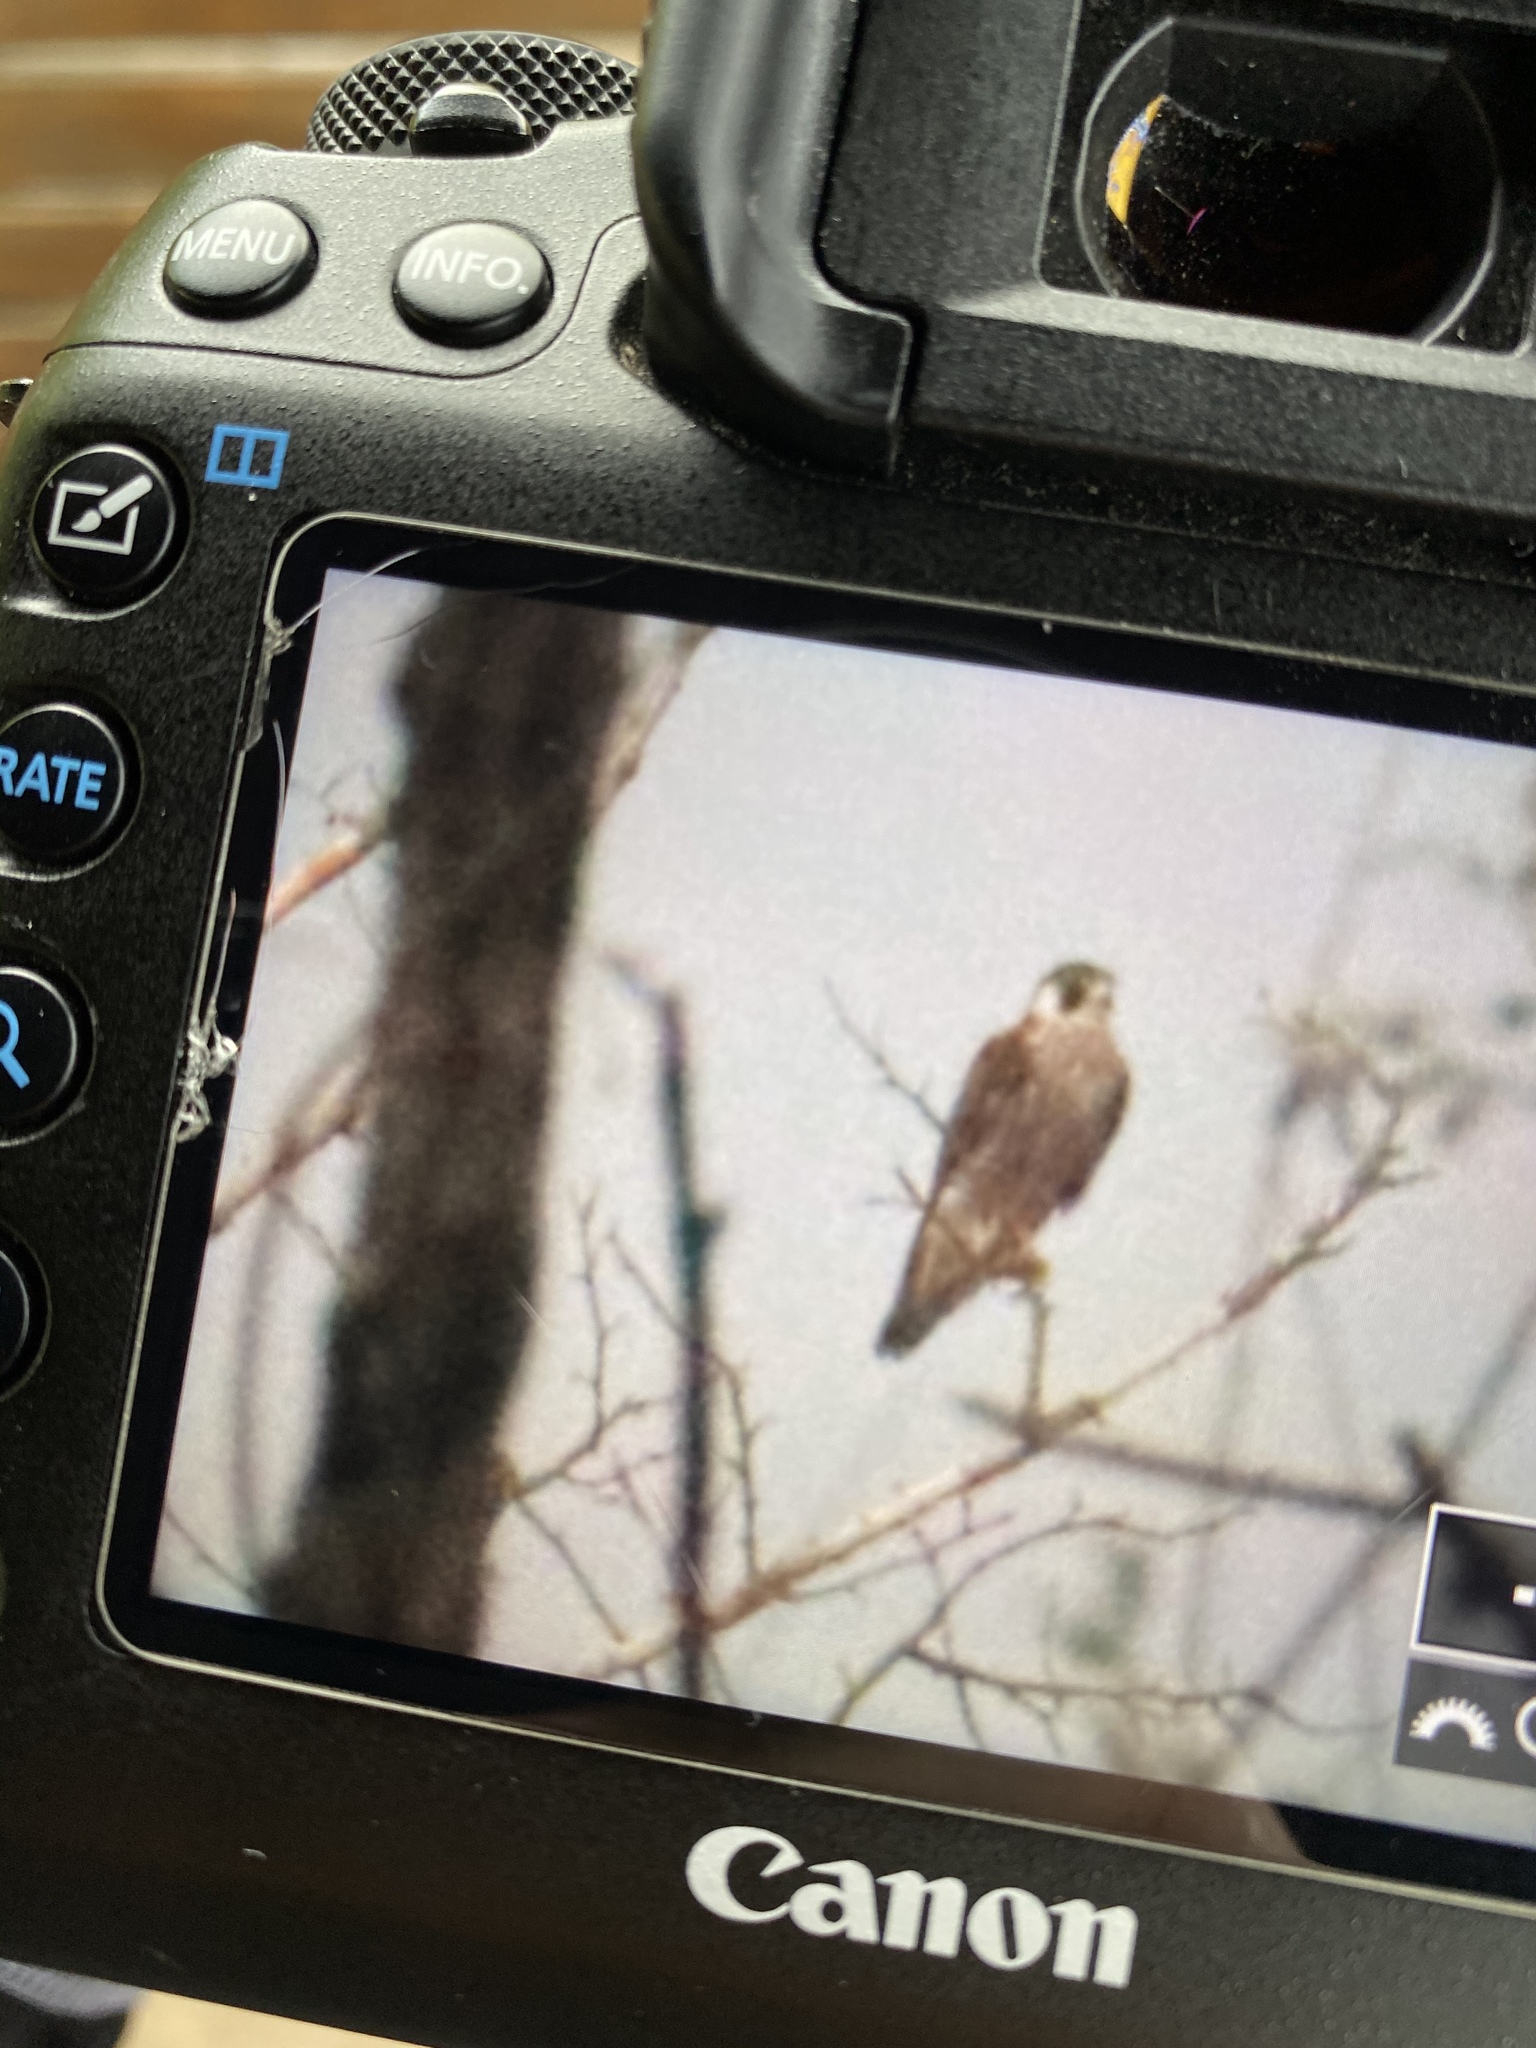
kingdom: Animalia
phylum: Chordata
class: Aves
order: Falconiformes
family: Falconidae
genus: Falco
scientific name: Falco peregrinus
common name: Peregrine falcon
